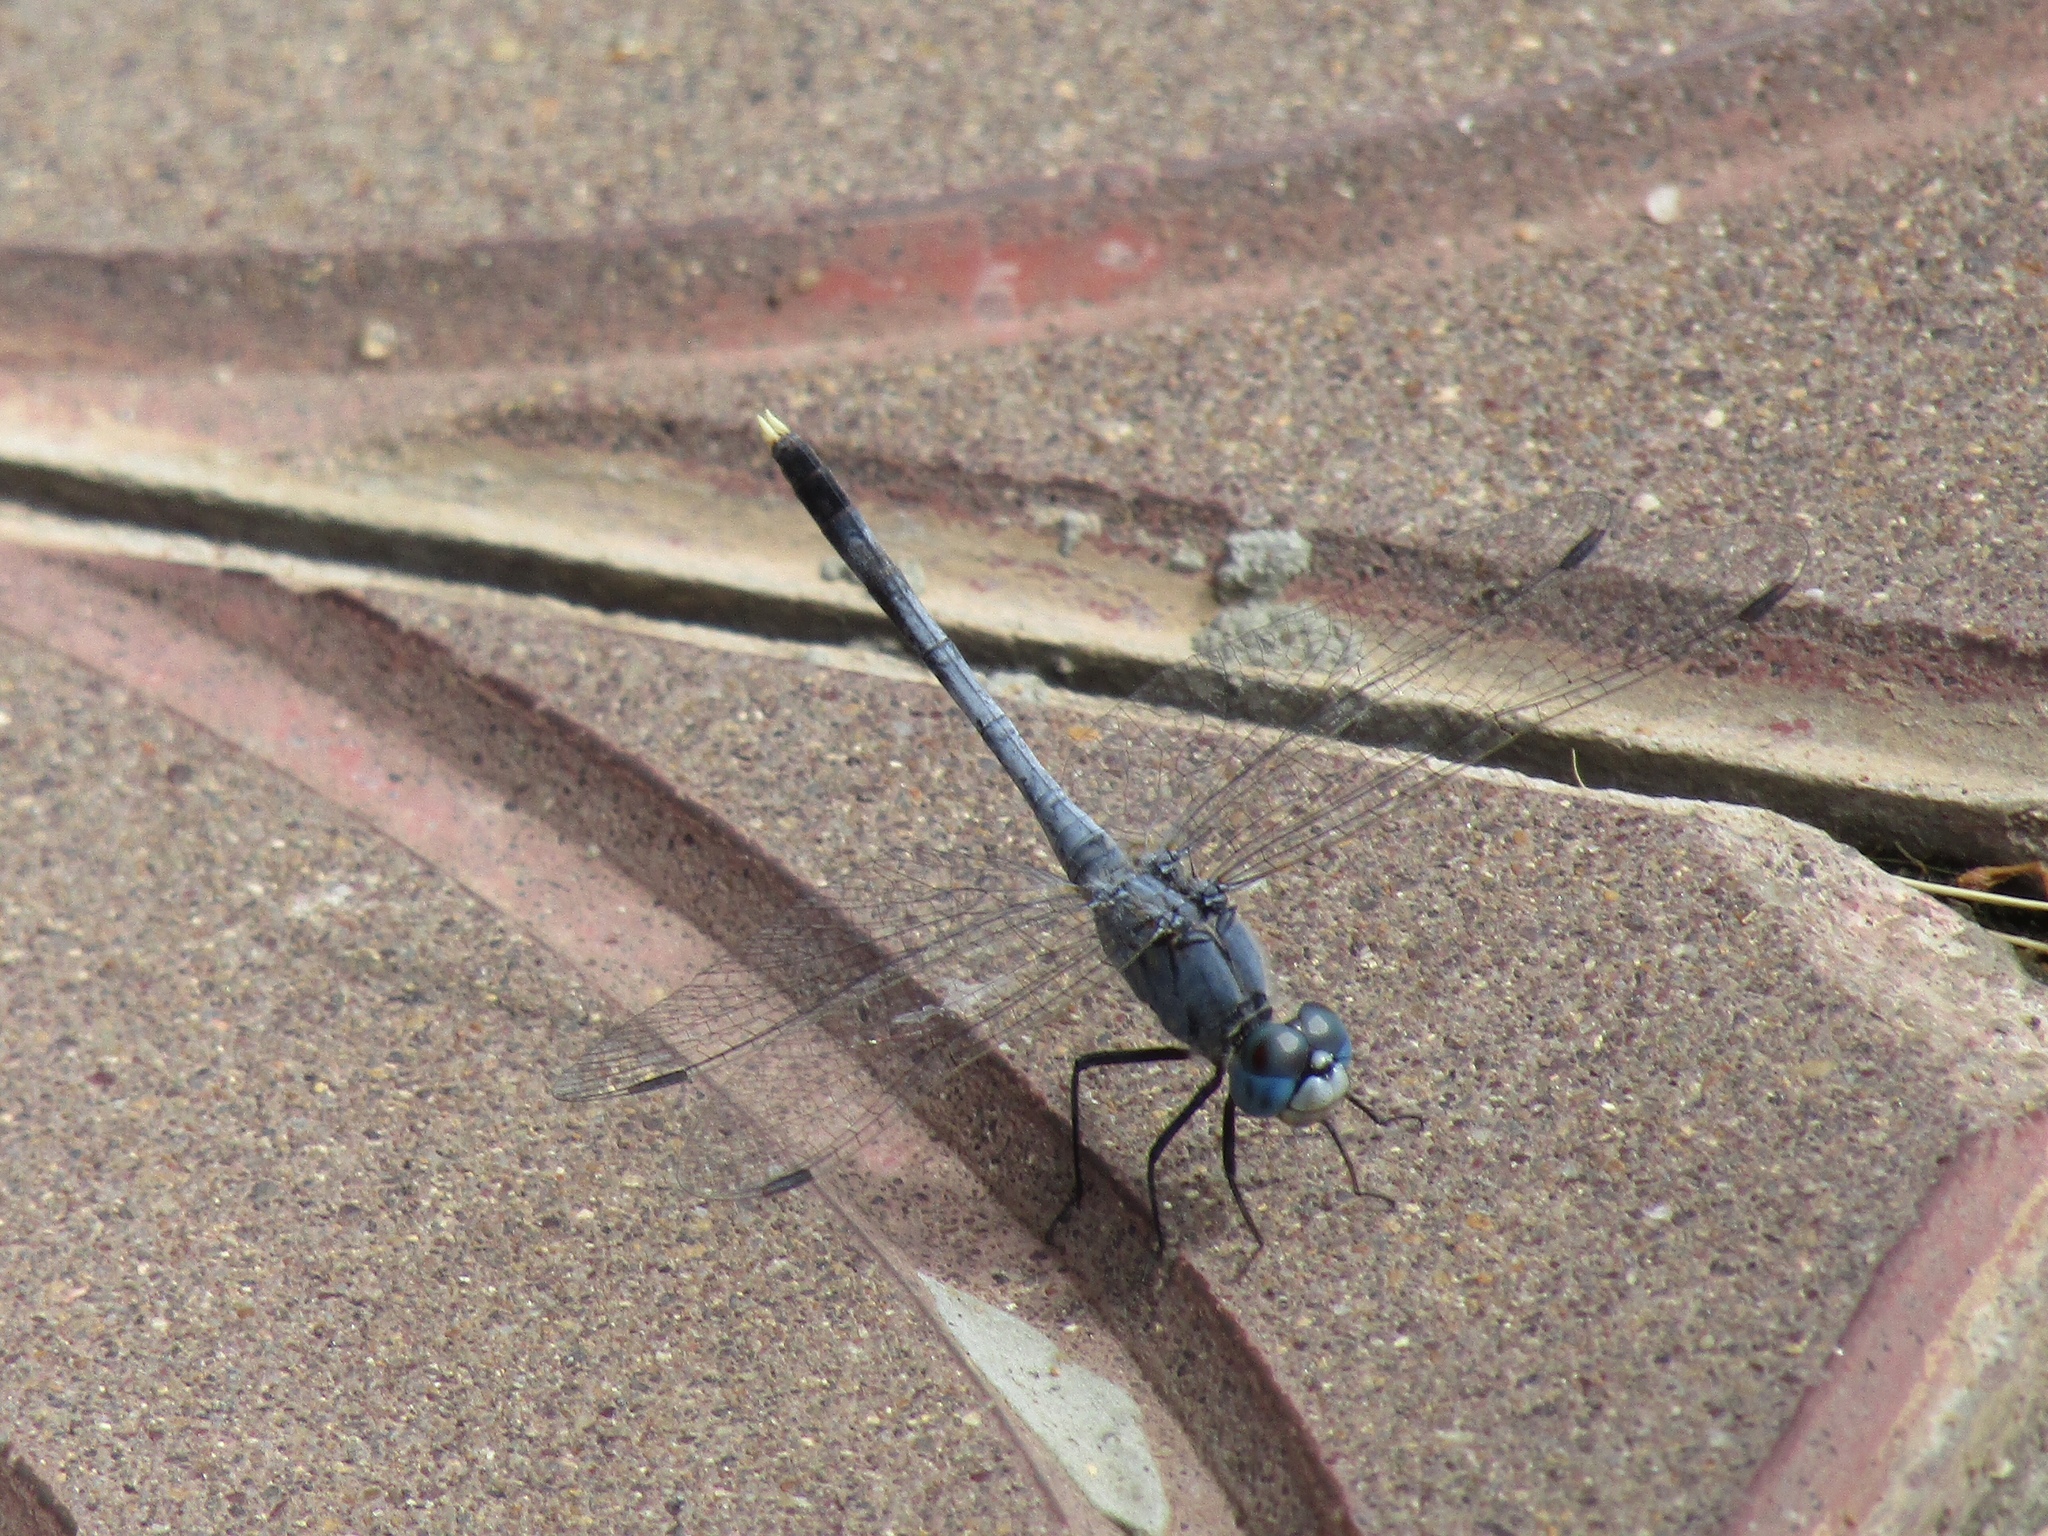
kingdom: Animalia
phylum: Arthropoda
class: Insecta
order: Odonata
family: Libellulidae
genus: Diplacodes
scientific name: Diplacodes trivialis
